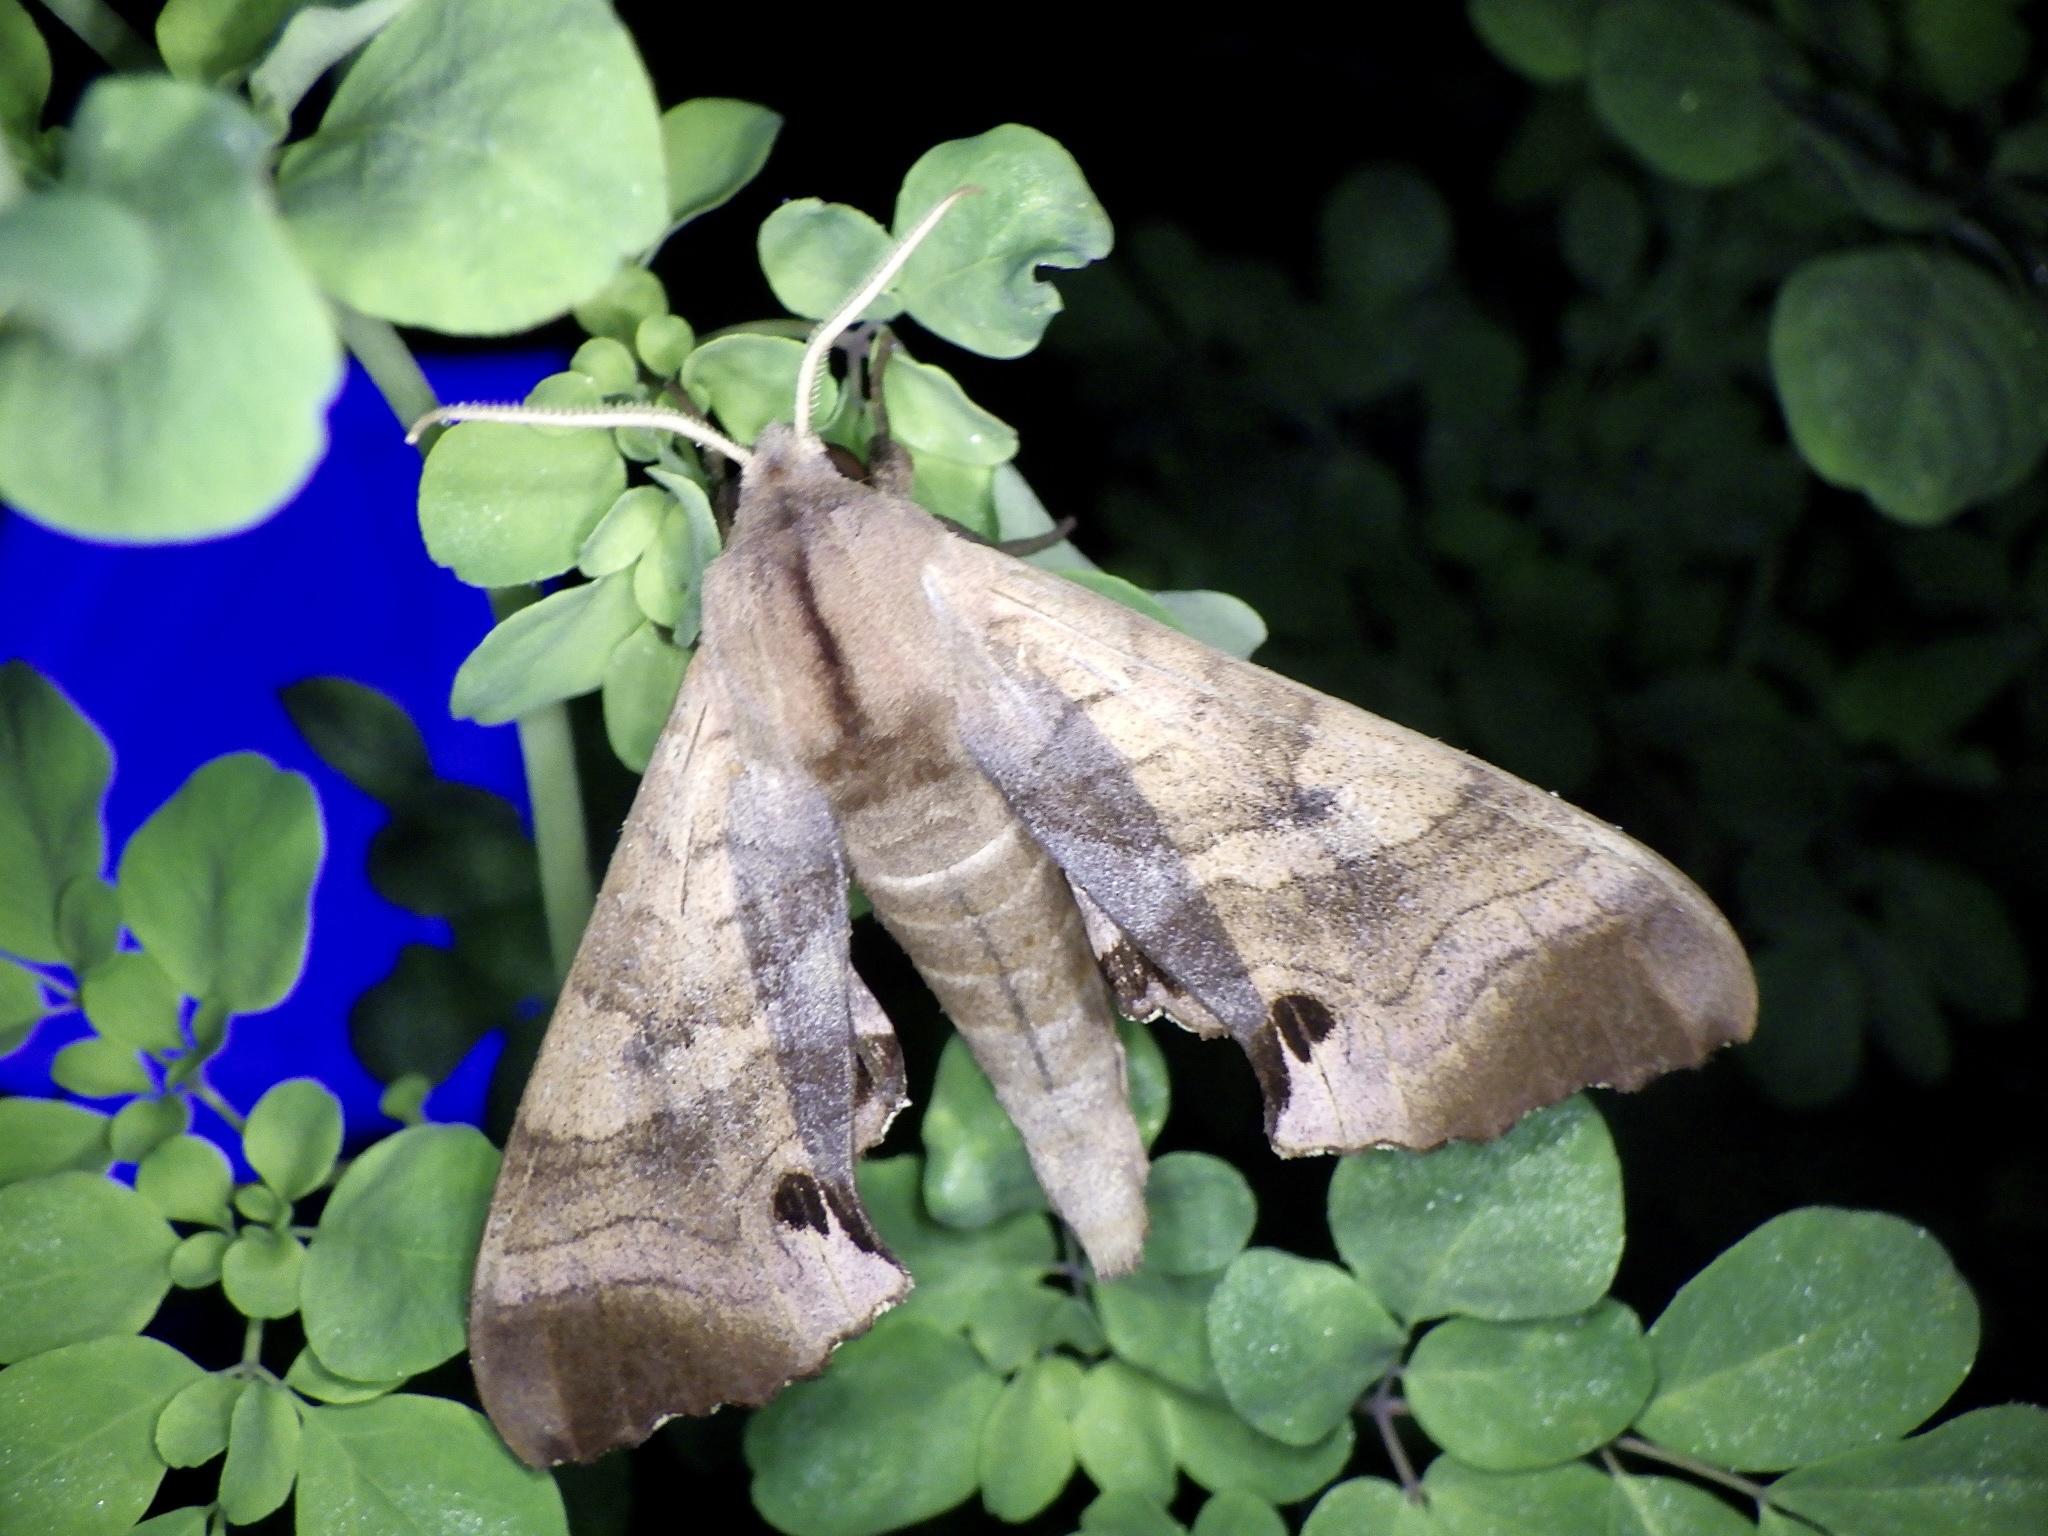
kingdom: Animalia
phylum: Arthropoda
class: Insecta
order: Lepidoptera
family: Sphingidae
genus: Marumba
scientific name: Marumba echephron
